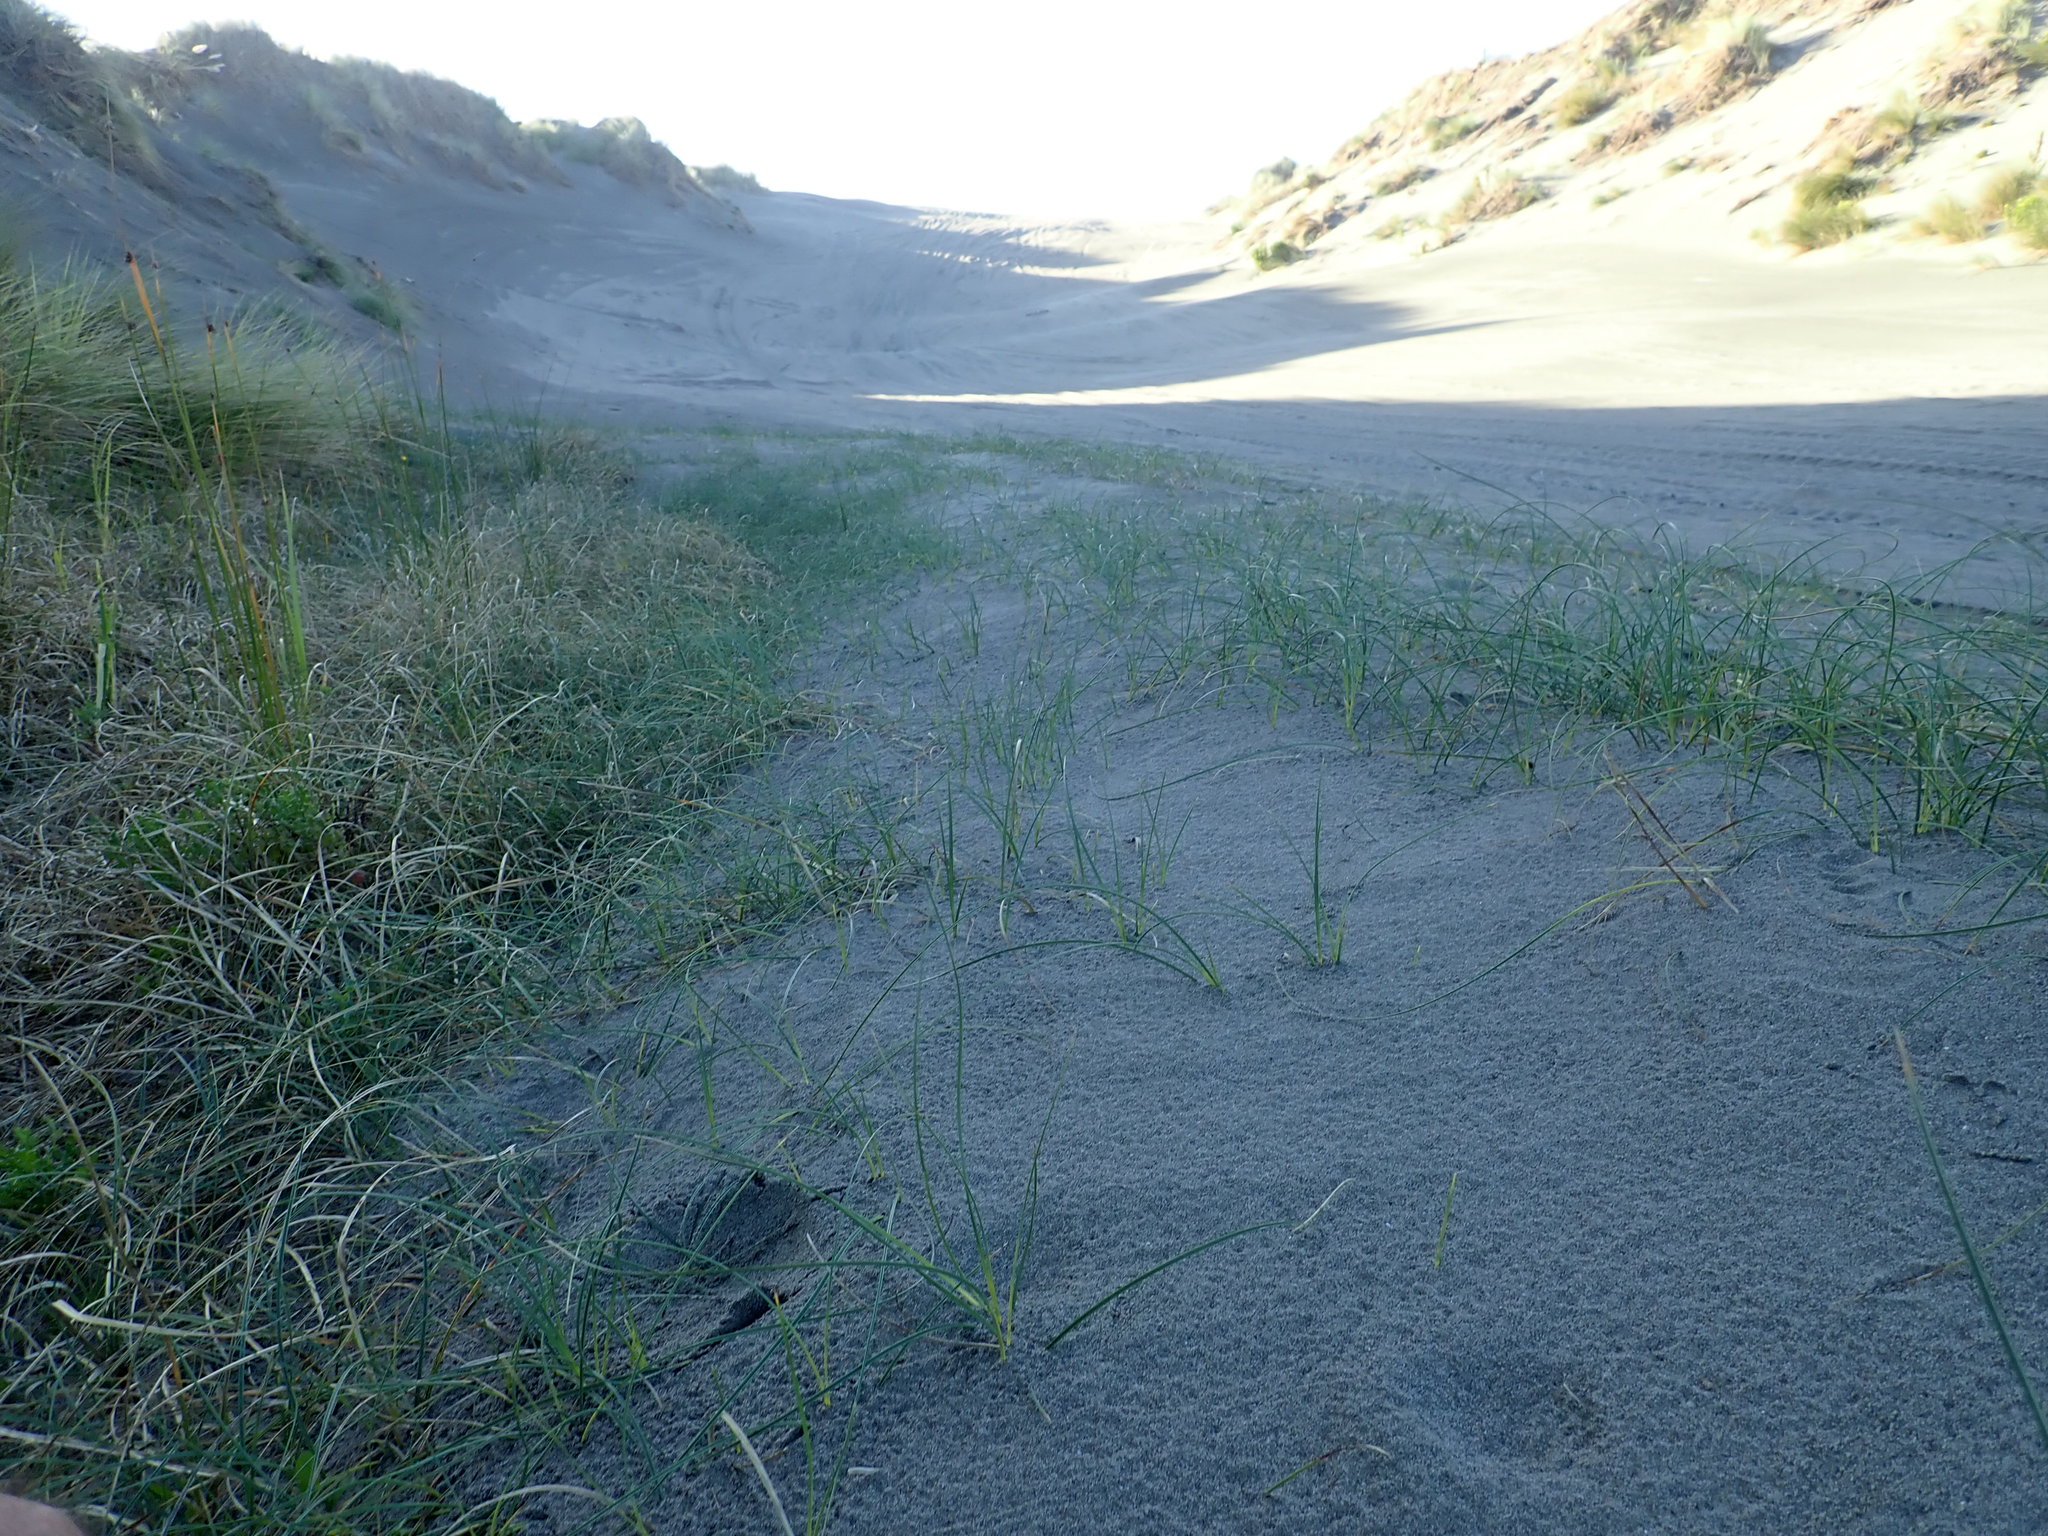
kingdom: Plantae
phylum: Tracheophyta
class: Liliopsida
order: Poales
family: Cyperaceae
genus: Carex
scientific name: Carex pumila
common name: Dwarf sedge
